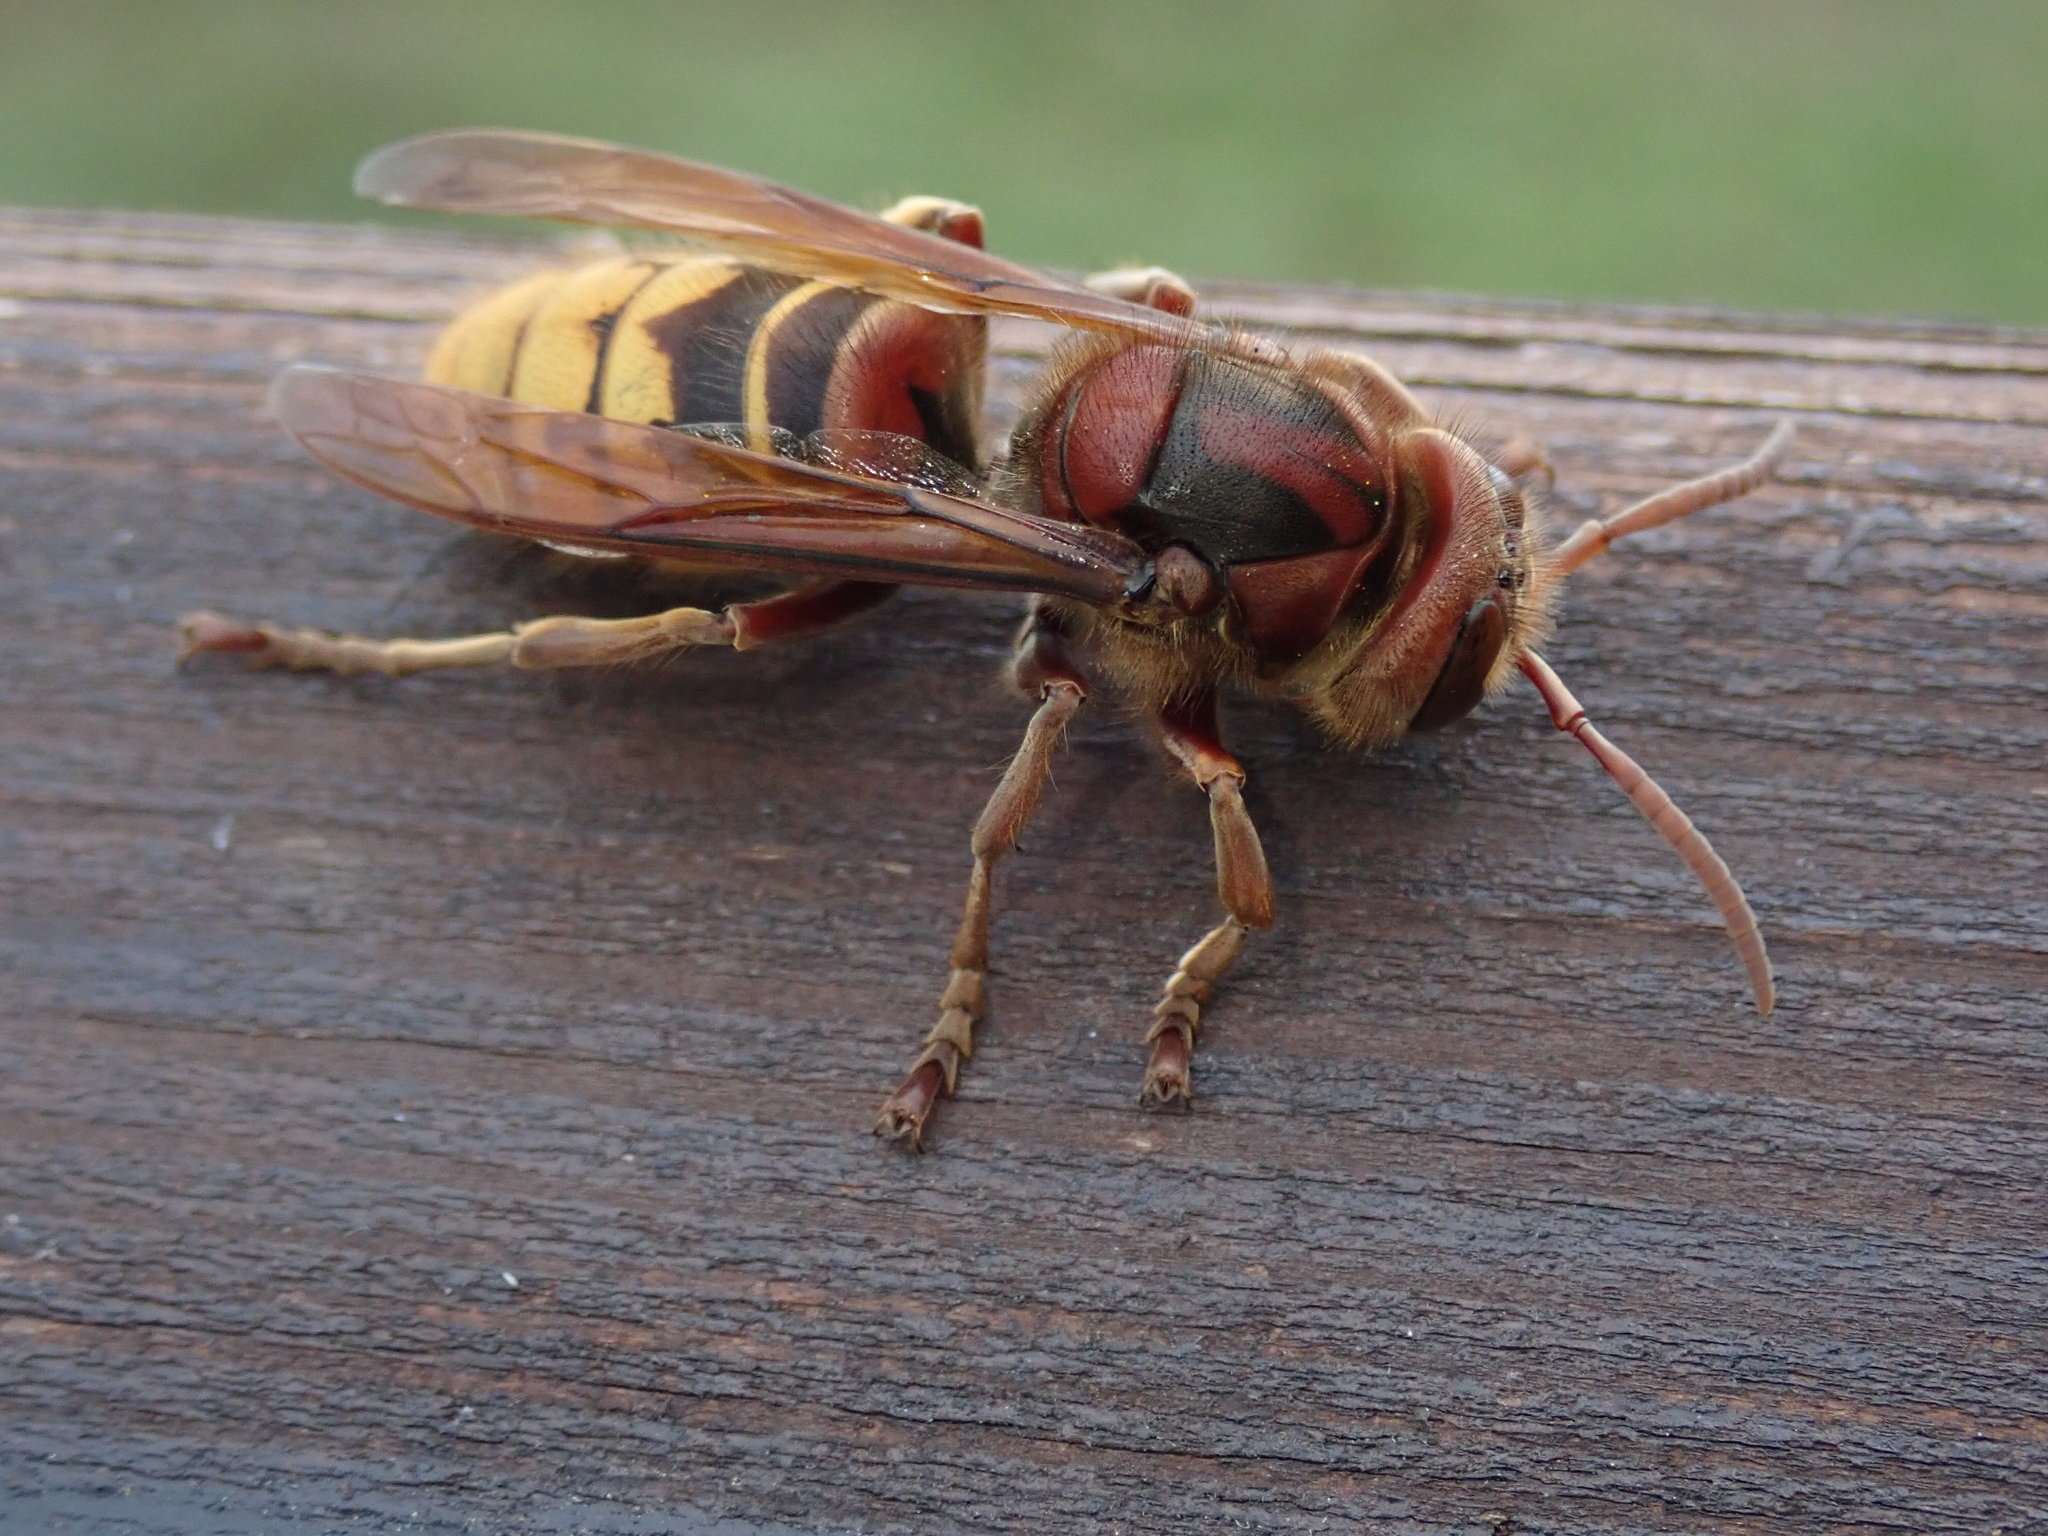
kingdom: Animalia
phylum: Arthropoda
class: Insecta
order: Hymenoptera
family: Vespidae
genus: Vespa
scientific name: Vespa crabro
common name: Hornet
